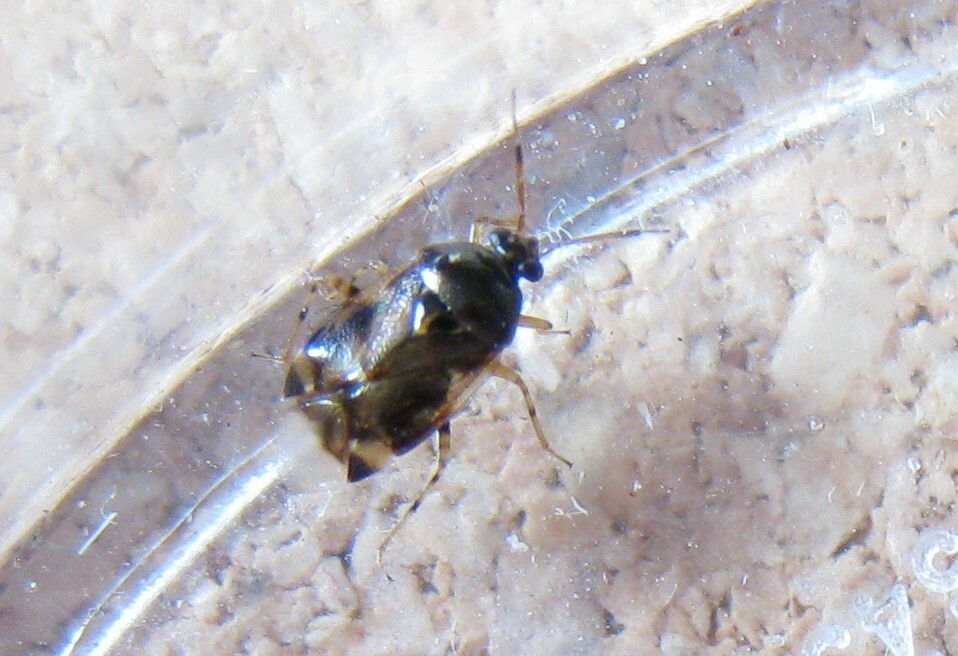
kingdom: Animalia
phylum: Arthropoda
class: Insecta
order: Hemiptera
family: Miridae
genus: Deraeocoris
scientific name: Deraeocoris lutescens
